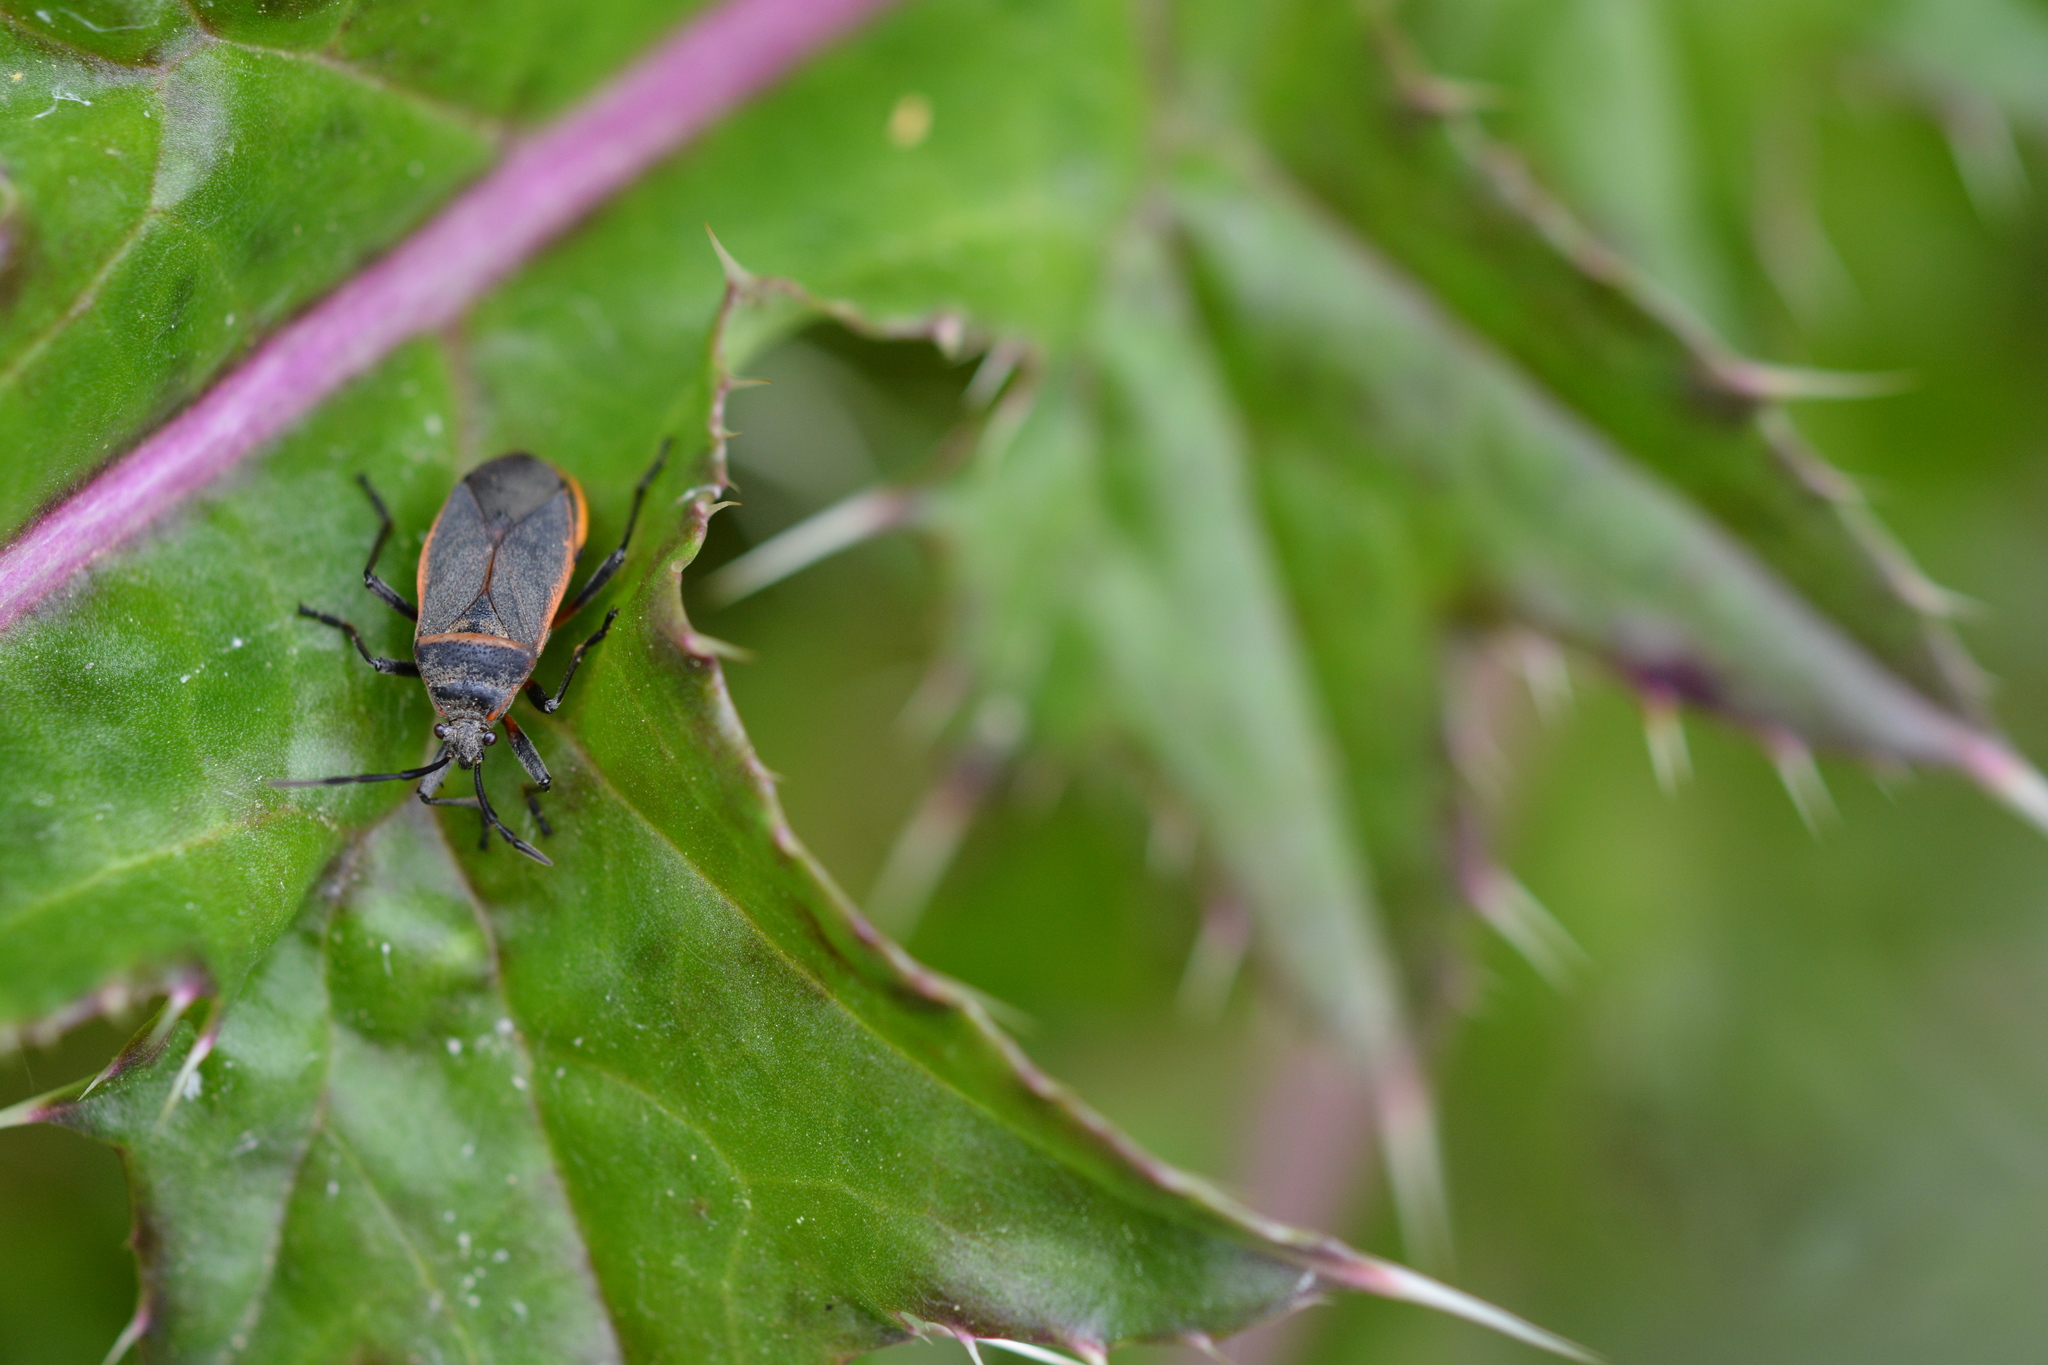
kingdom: Animalia
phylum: Arthropoda
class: Insecta
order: Hemiptera
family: Largidae
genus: Largus
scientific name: Largus succinctus
